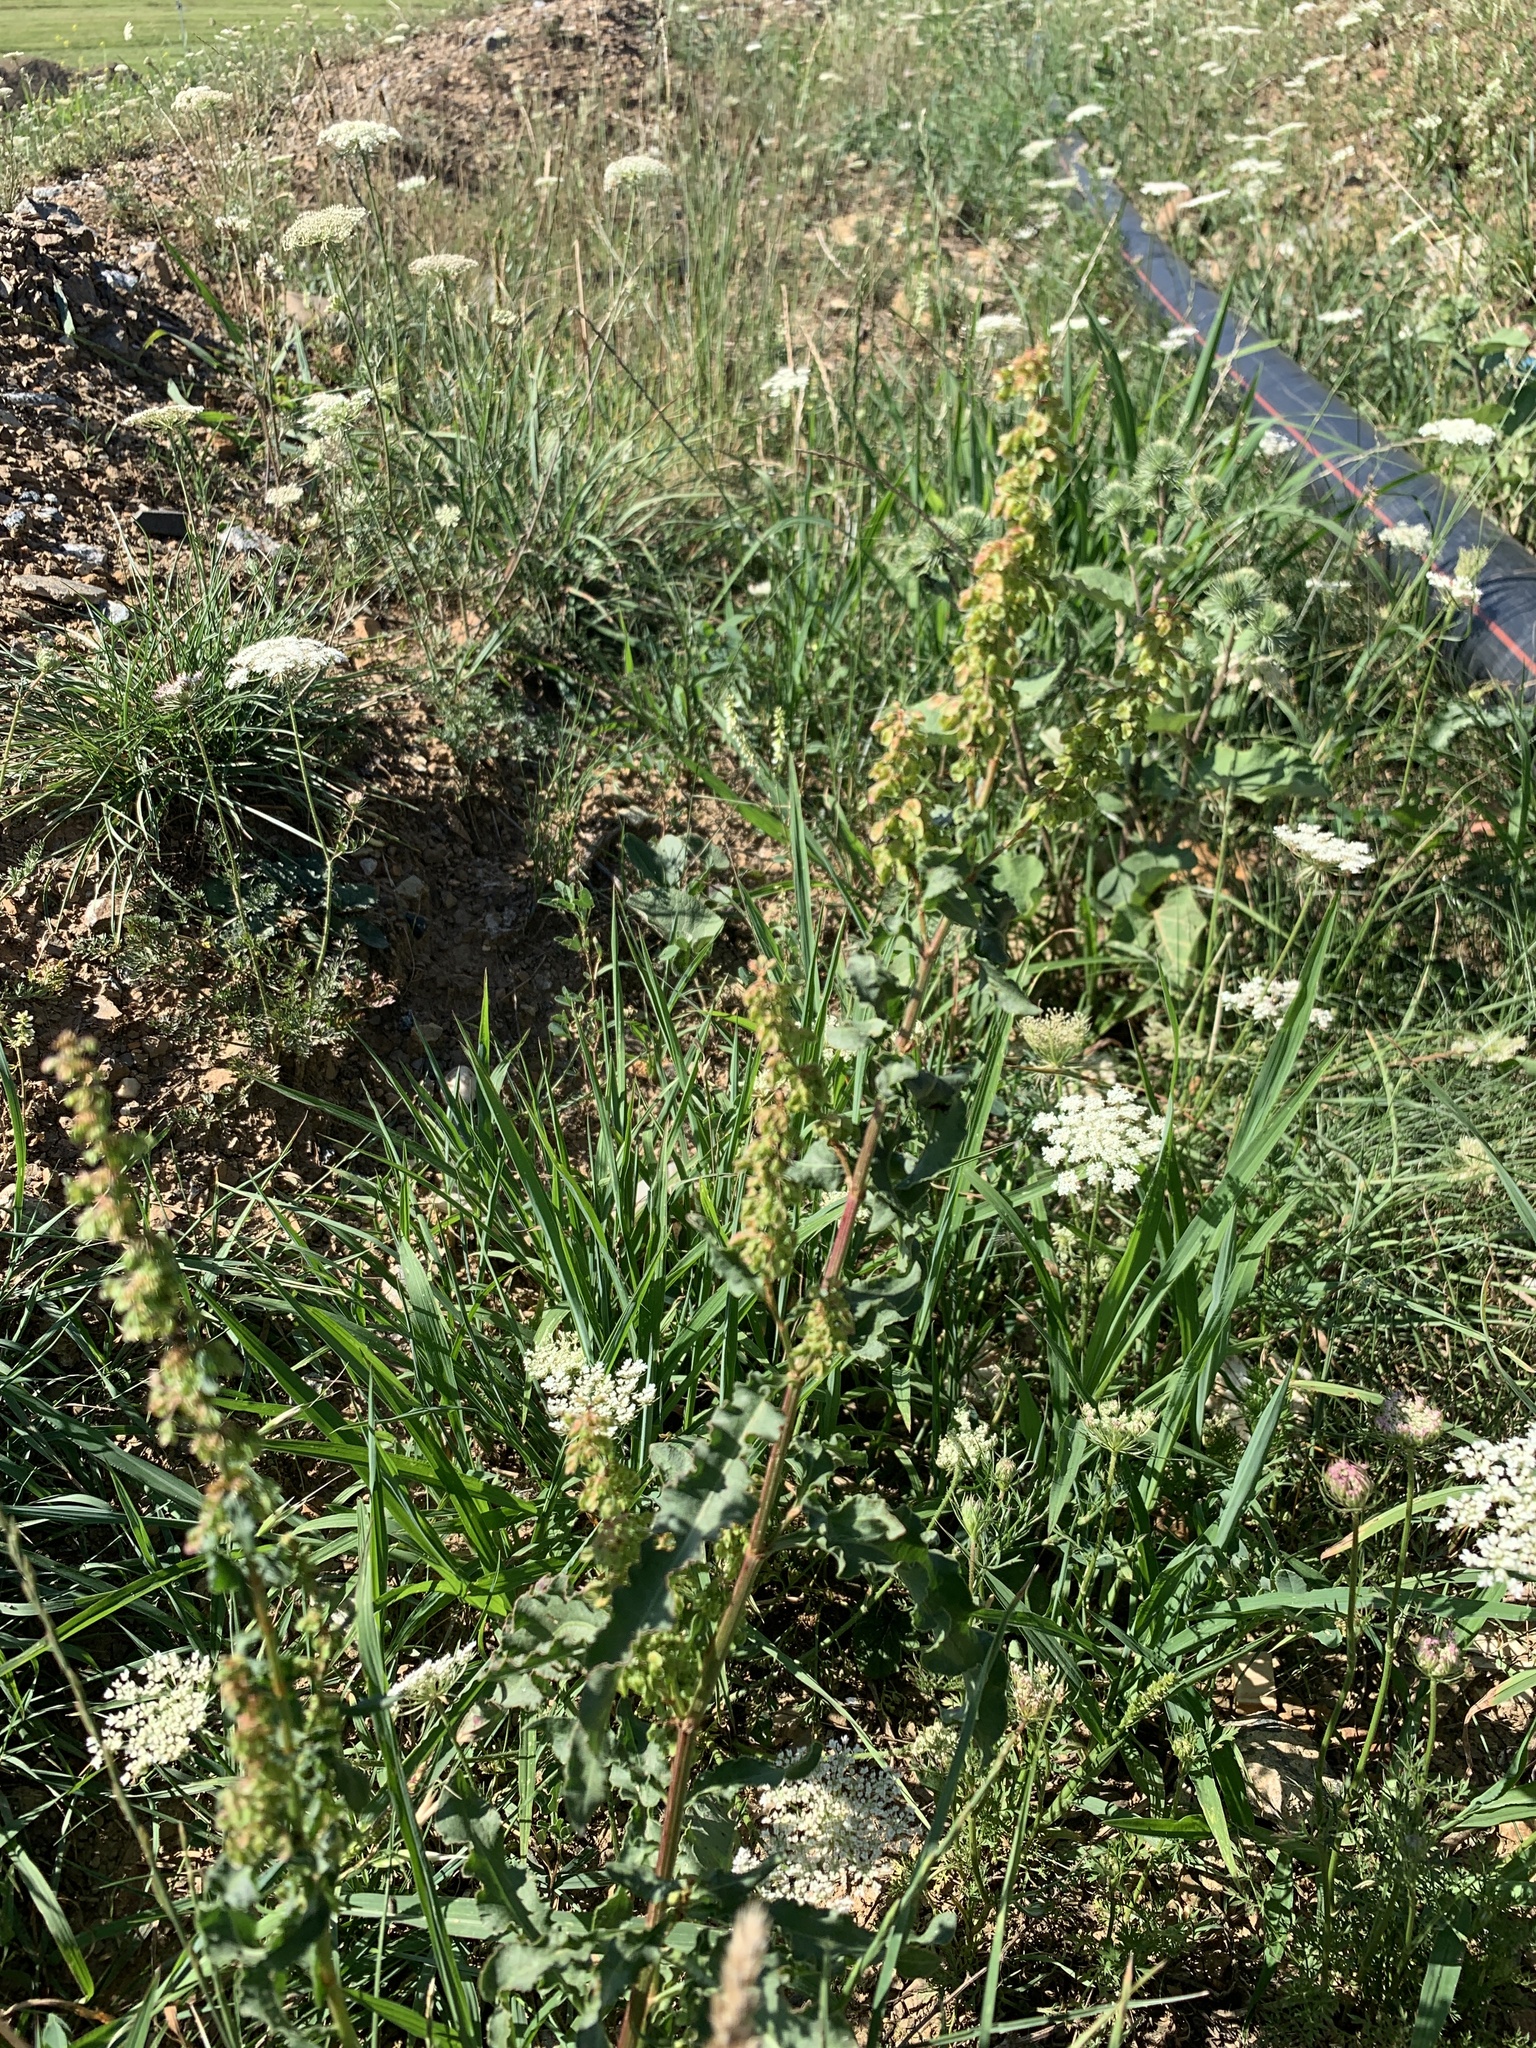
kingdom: Plantae
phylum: Tracheophyta
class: Magnoliopsida
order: Caryophyllales
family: Polygonaceae
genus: Rumex
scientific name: Rumex crispus
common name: Curled dock
